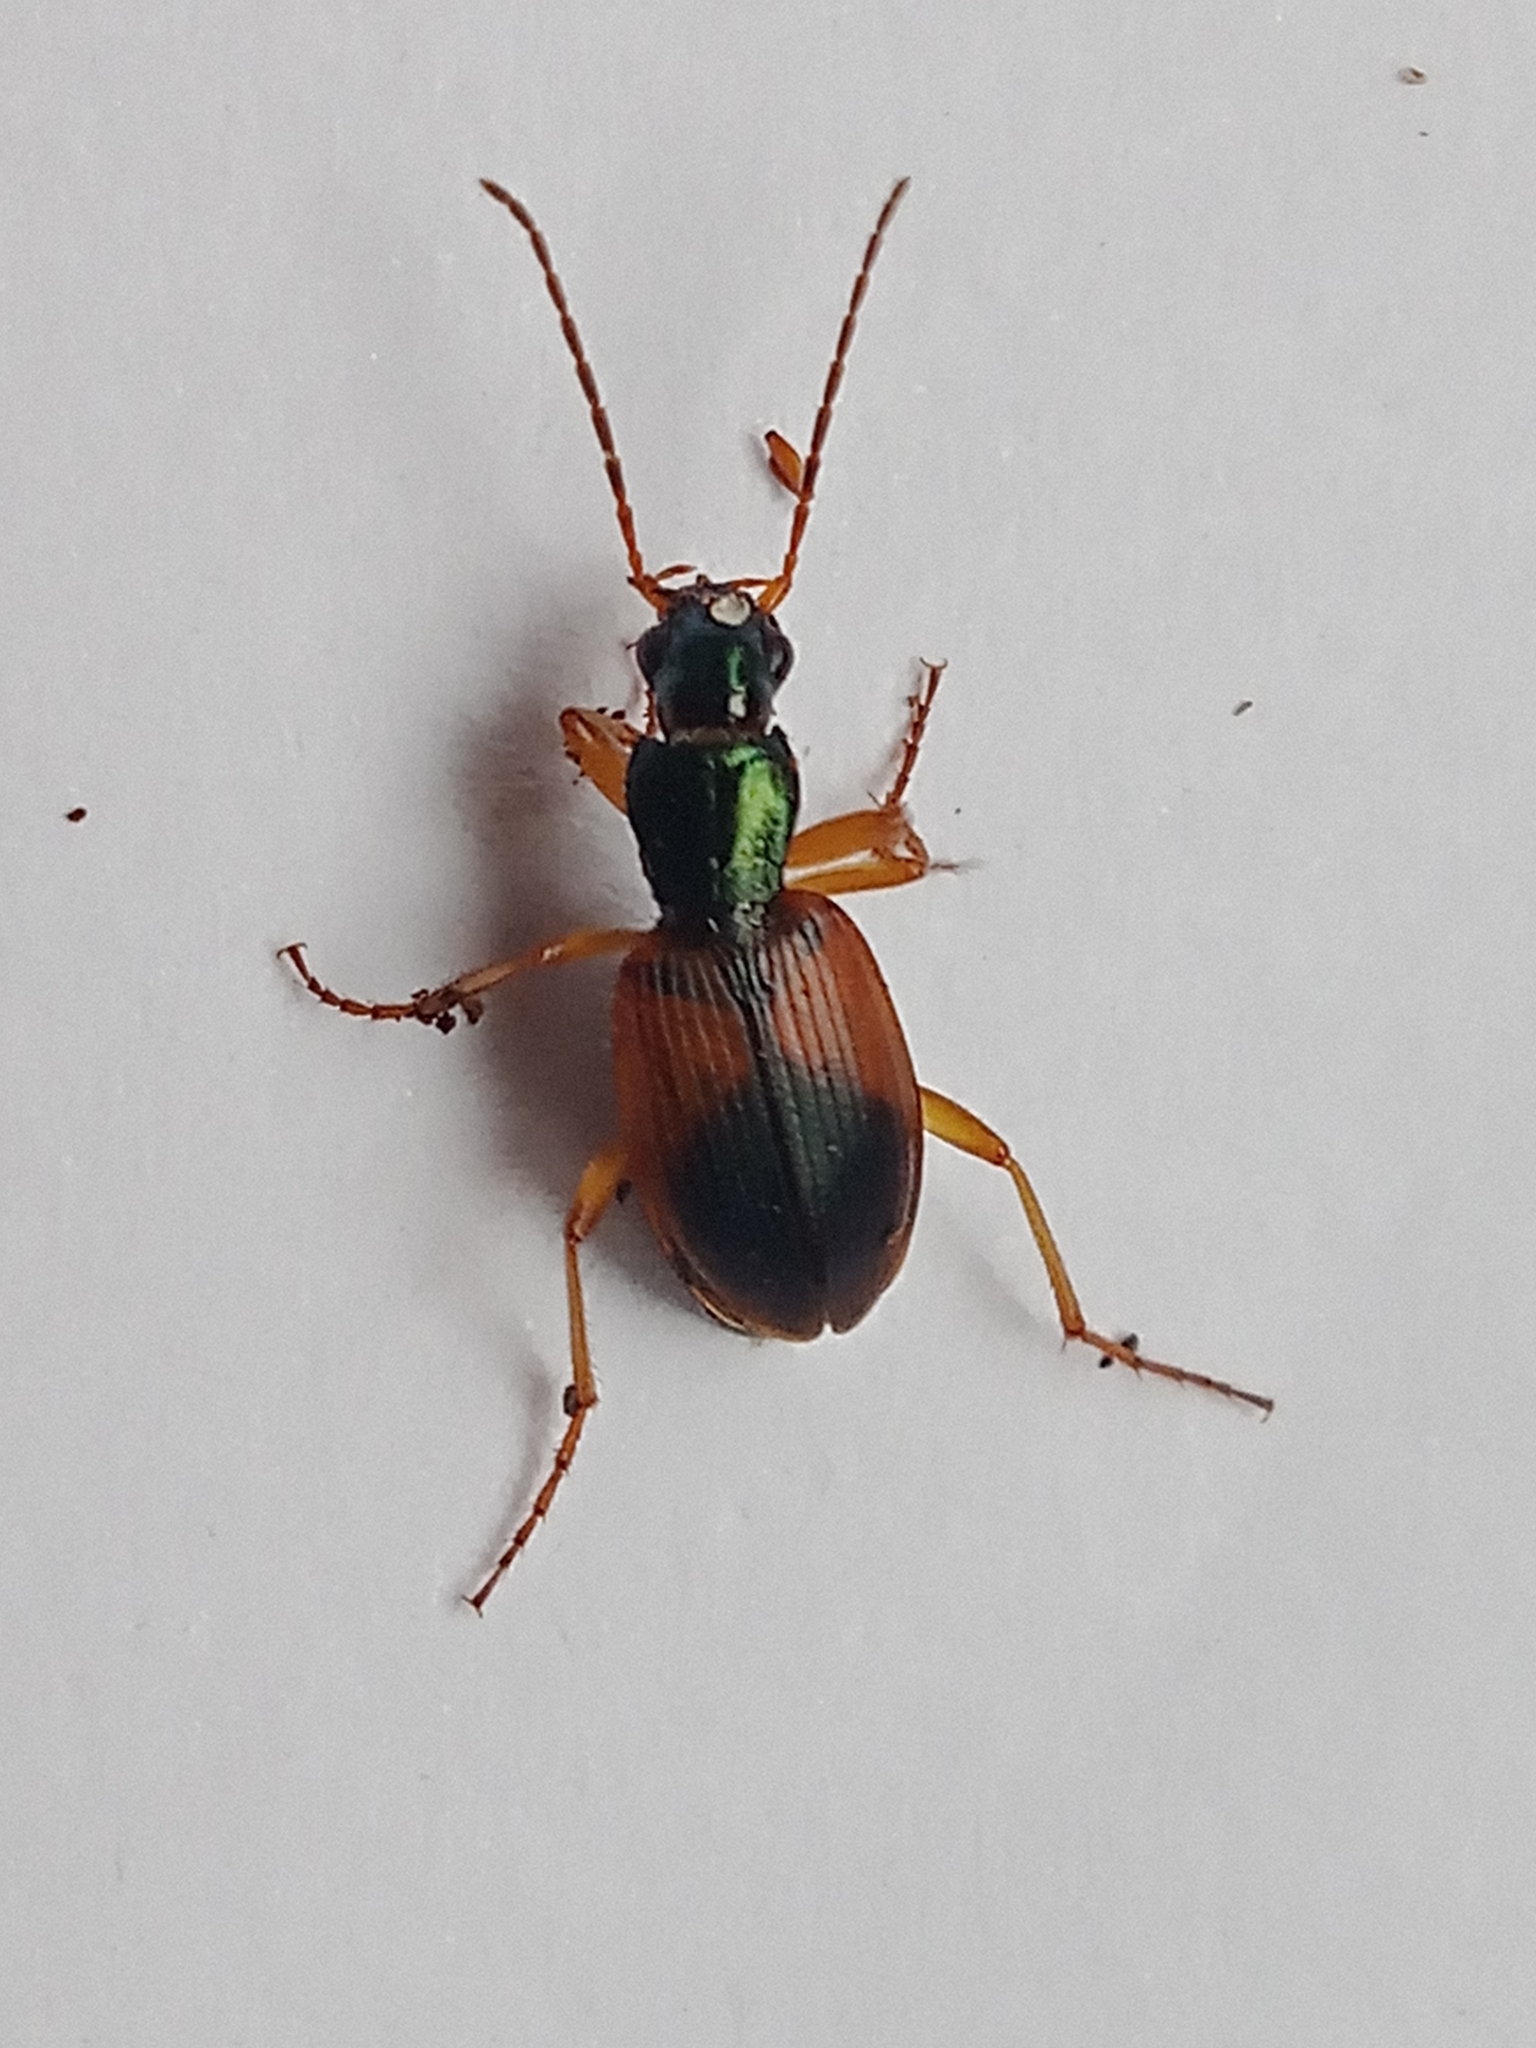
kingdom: Animalia
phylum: Arthropoda
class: Insecta
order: Coleoptera
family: Carabidae
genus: Anchomenus
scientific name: Anchomenus dorsalis
